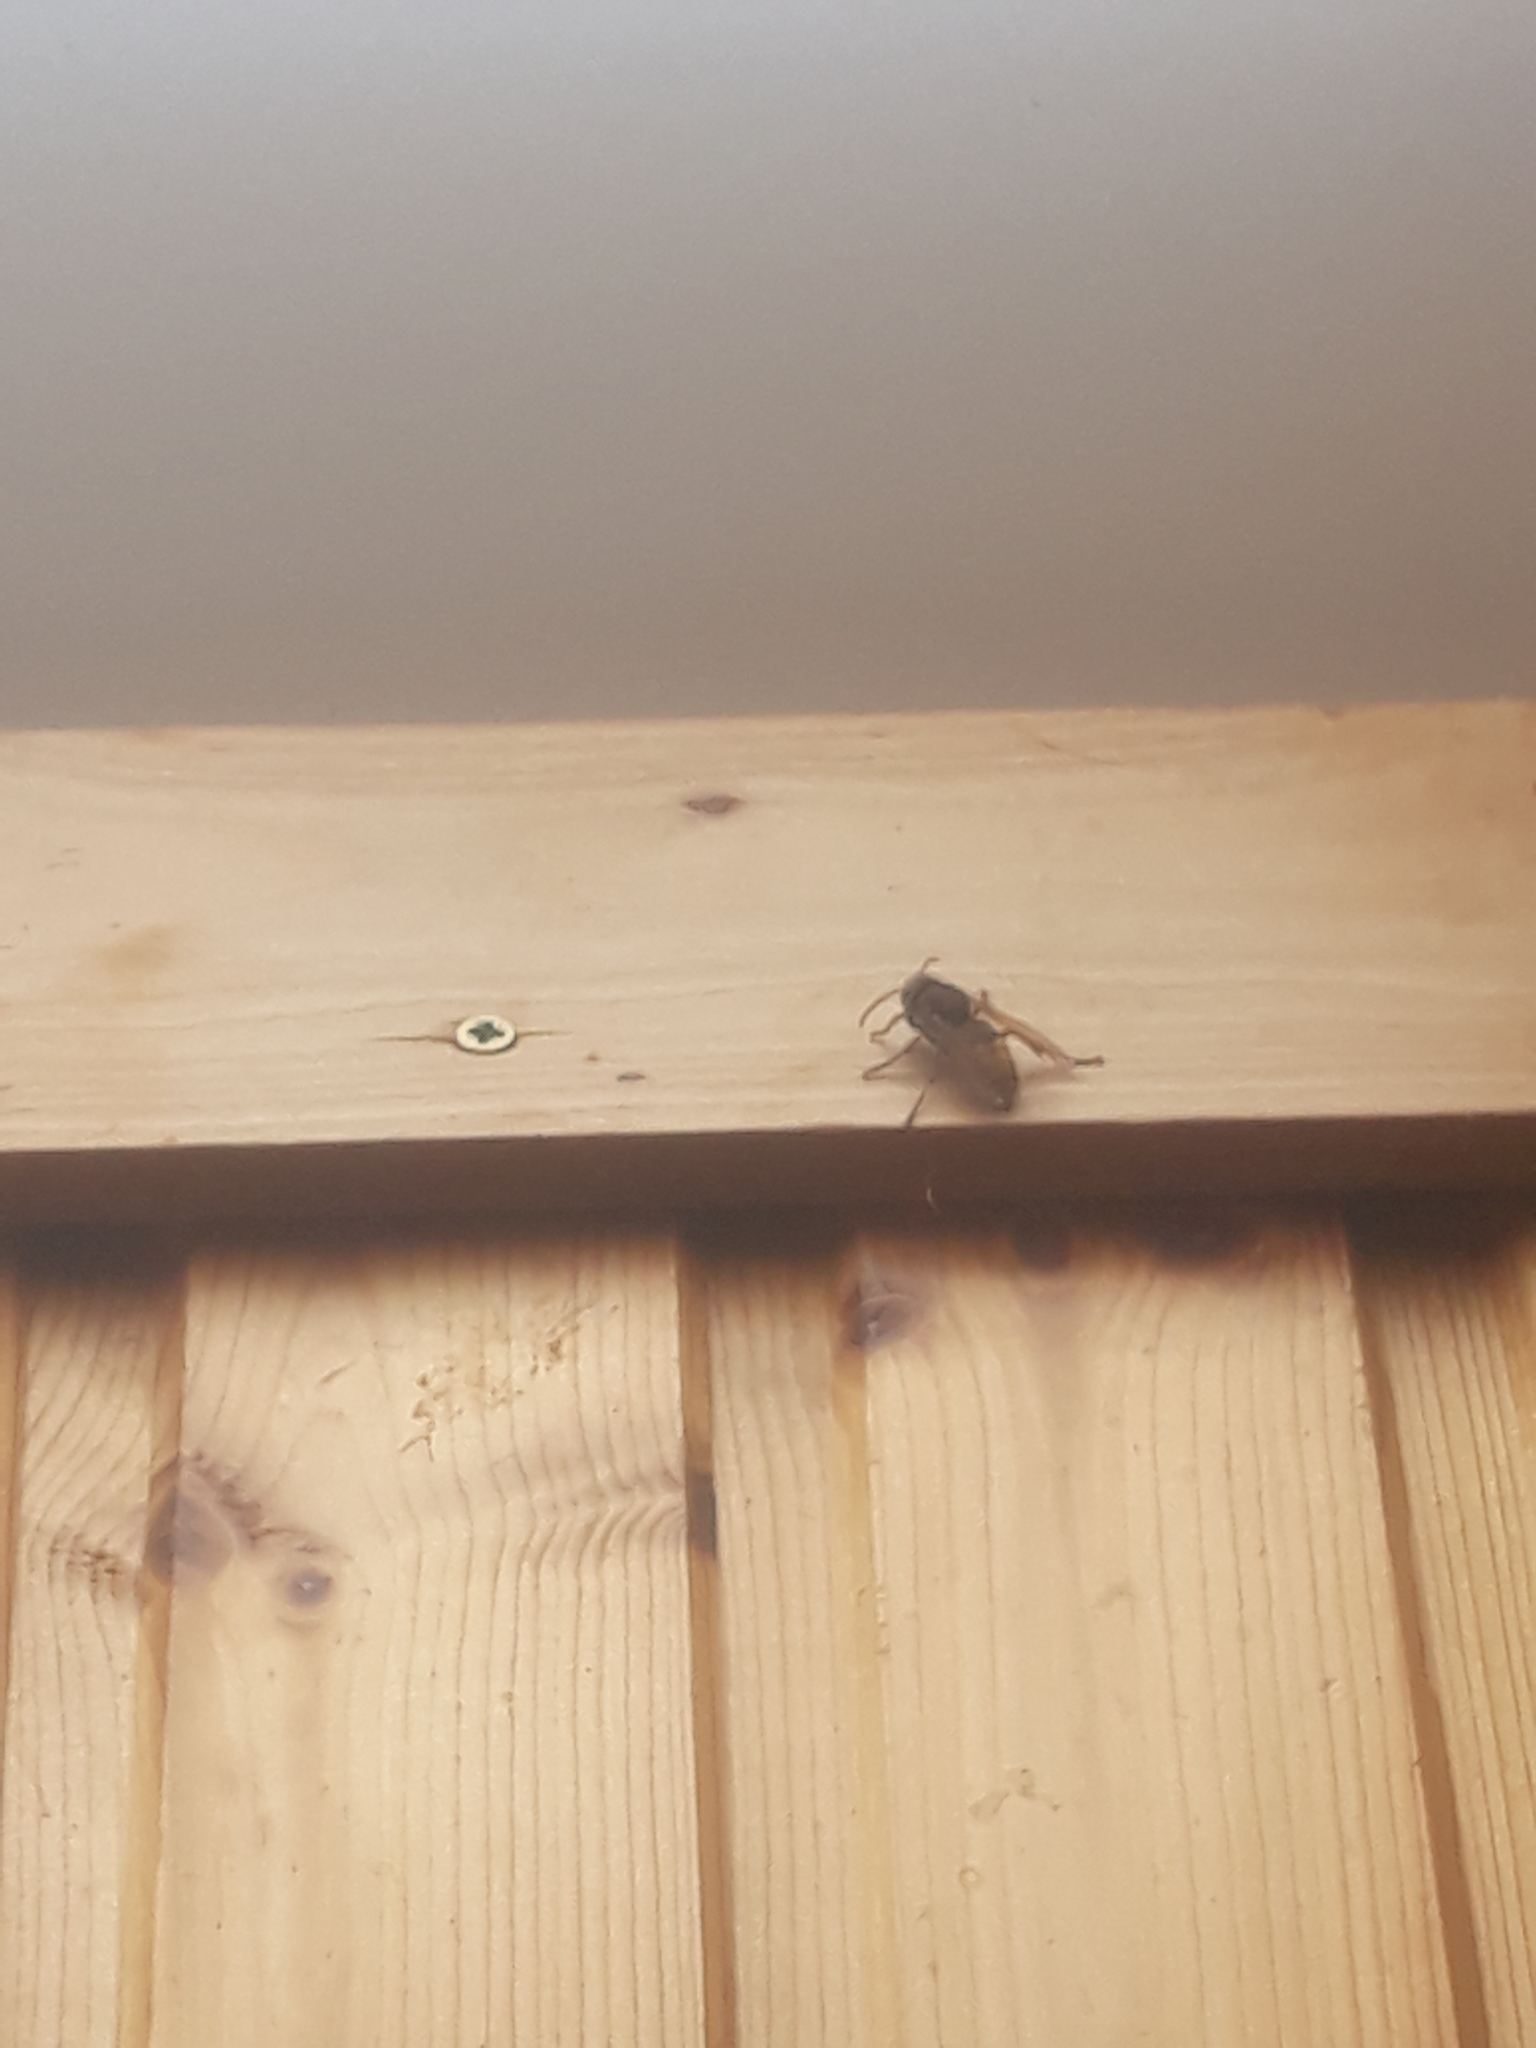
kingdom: Animalia
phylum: Arthropoda
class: Insecta
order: Hymenoptera
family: Vespidae
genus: Vespa
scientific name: Vespa crabro
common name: Hornet
